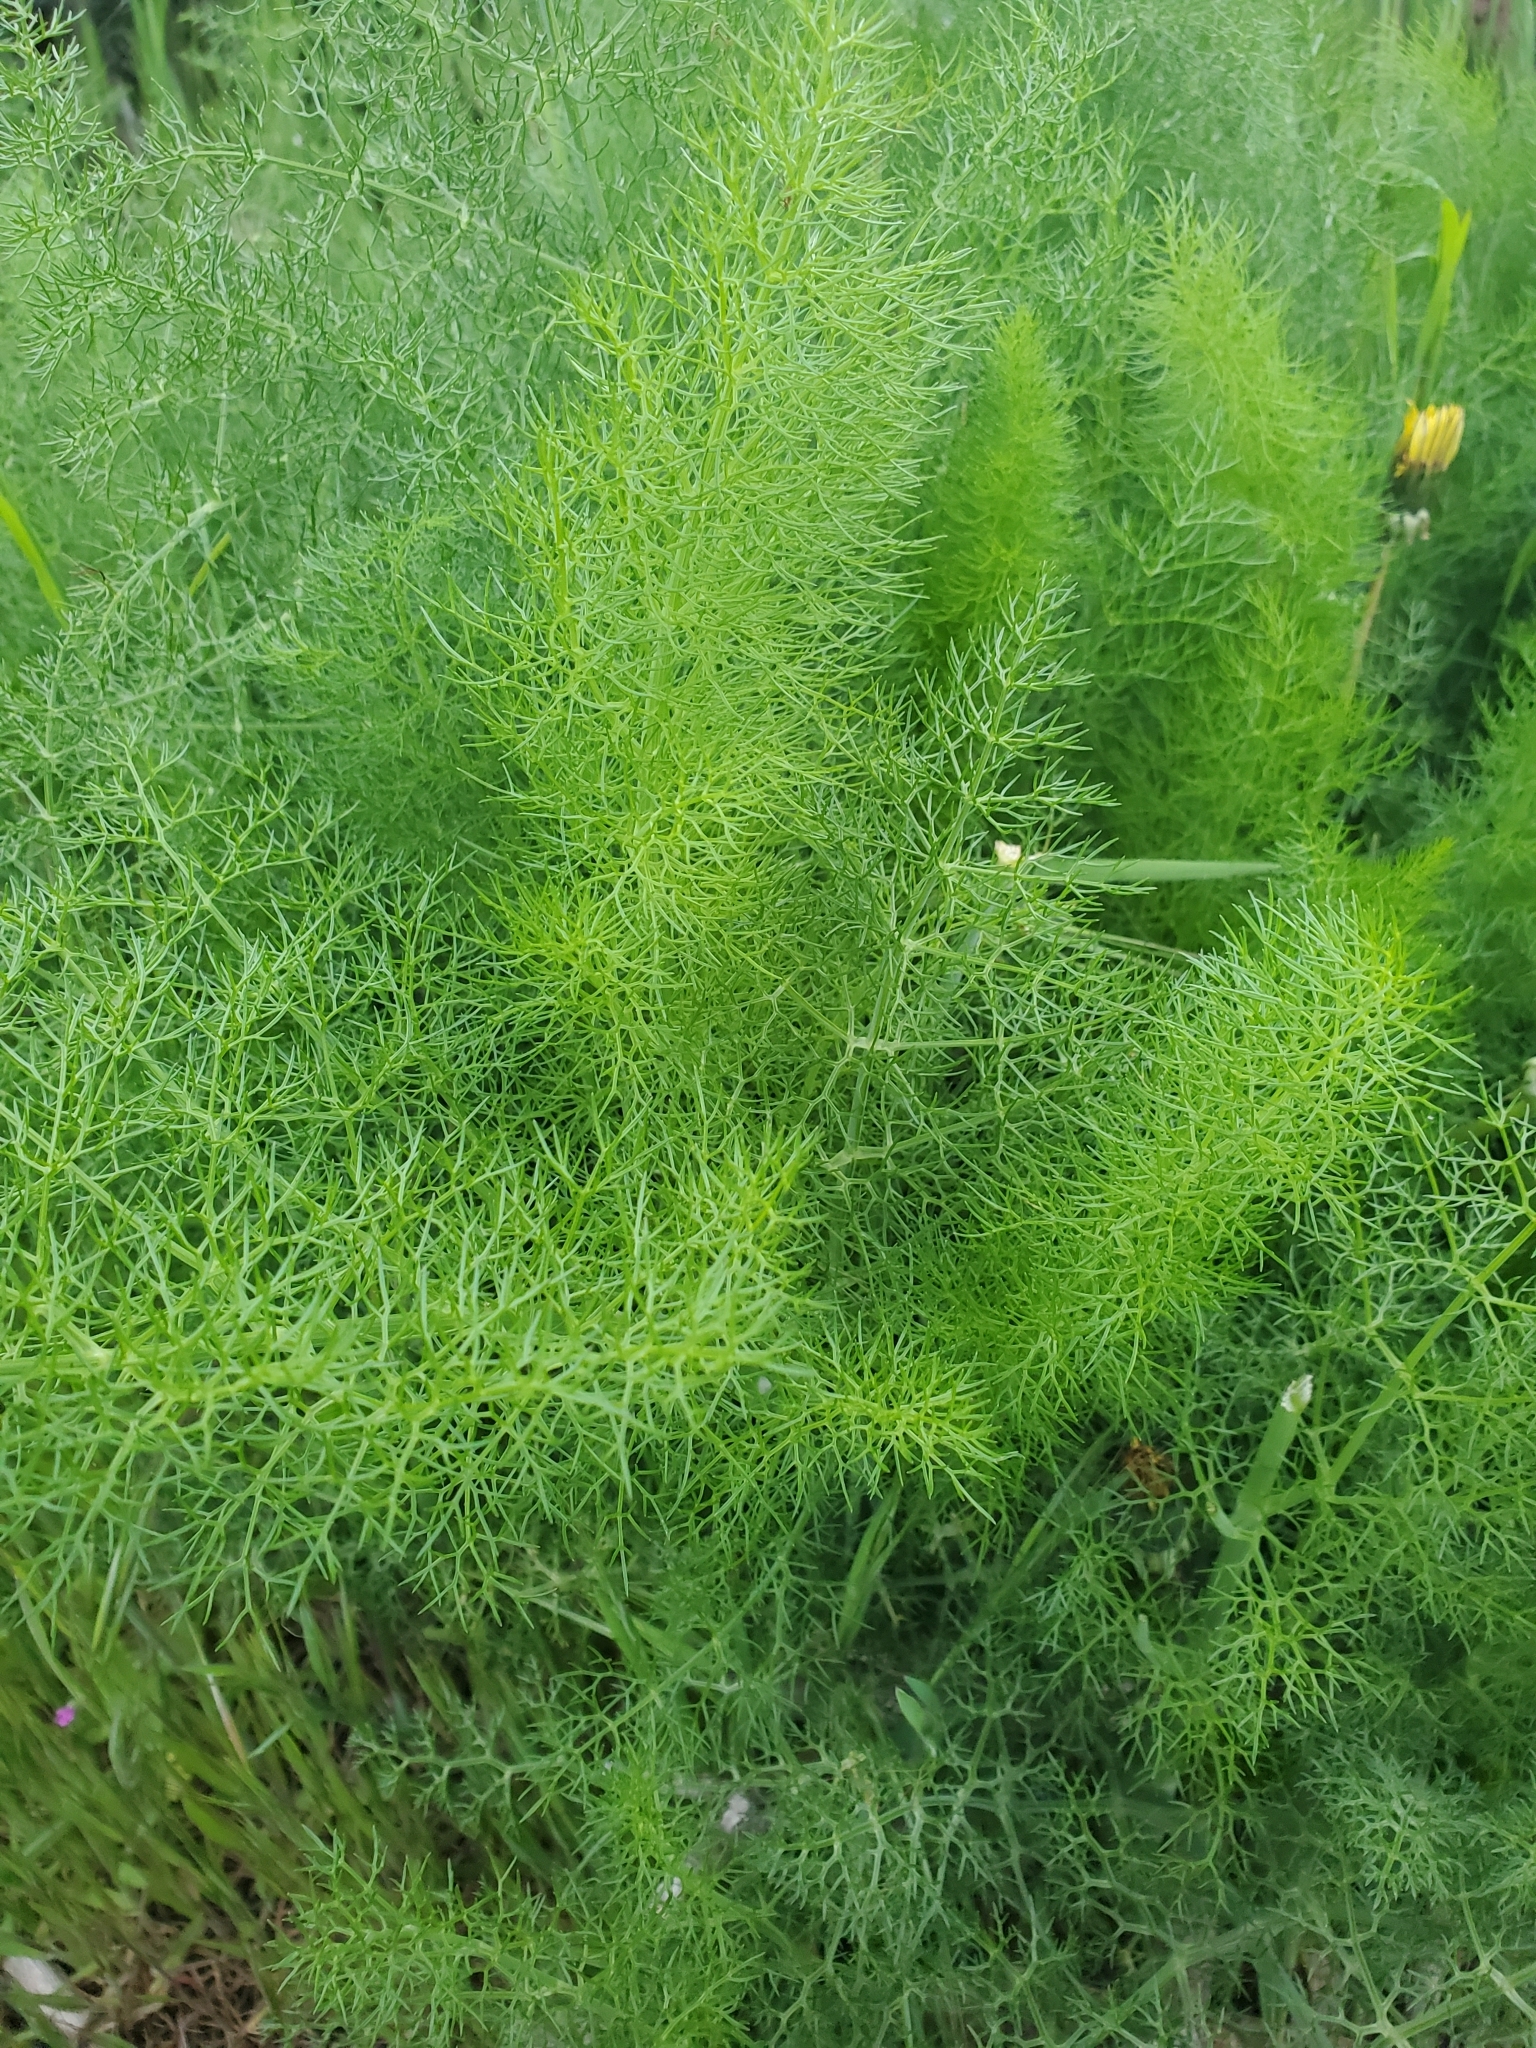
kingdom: Plantae
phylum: Tracheophyta
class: Magnoliopsida
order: Apiales
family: Apiaceae
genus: Foeniculum
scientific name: Foeniculum vulgare
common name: Fennel
